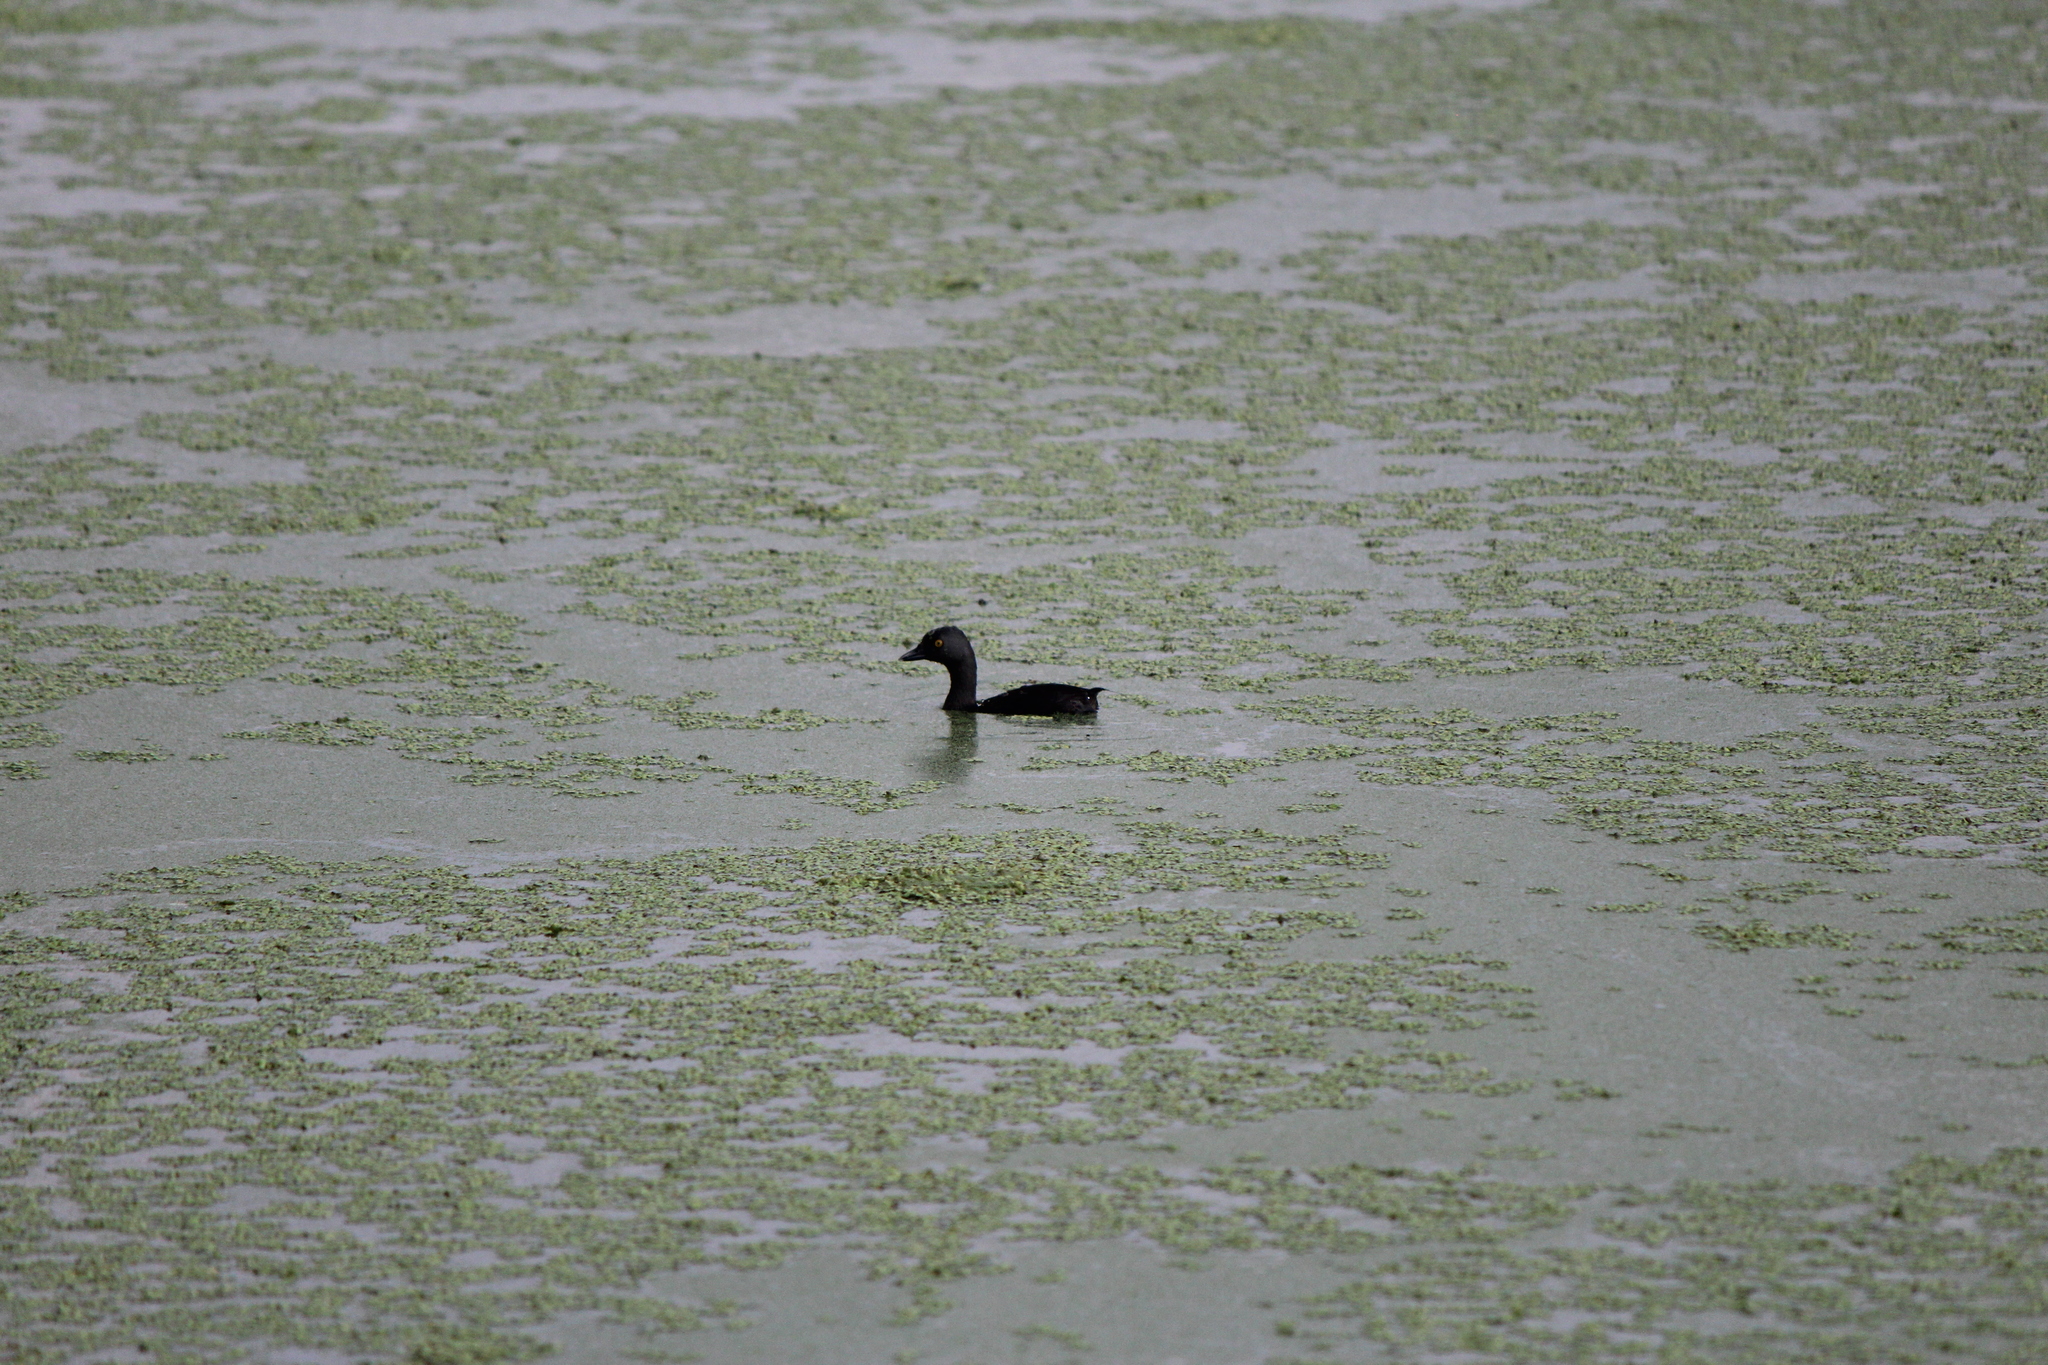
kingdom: Animalia
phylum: Chordata
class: Aves
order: Podicipediformes
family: Podicipedidae
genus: Tachybaptus
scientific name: Tachybaptus dominicus
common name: Least grebe
